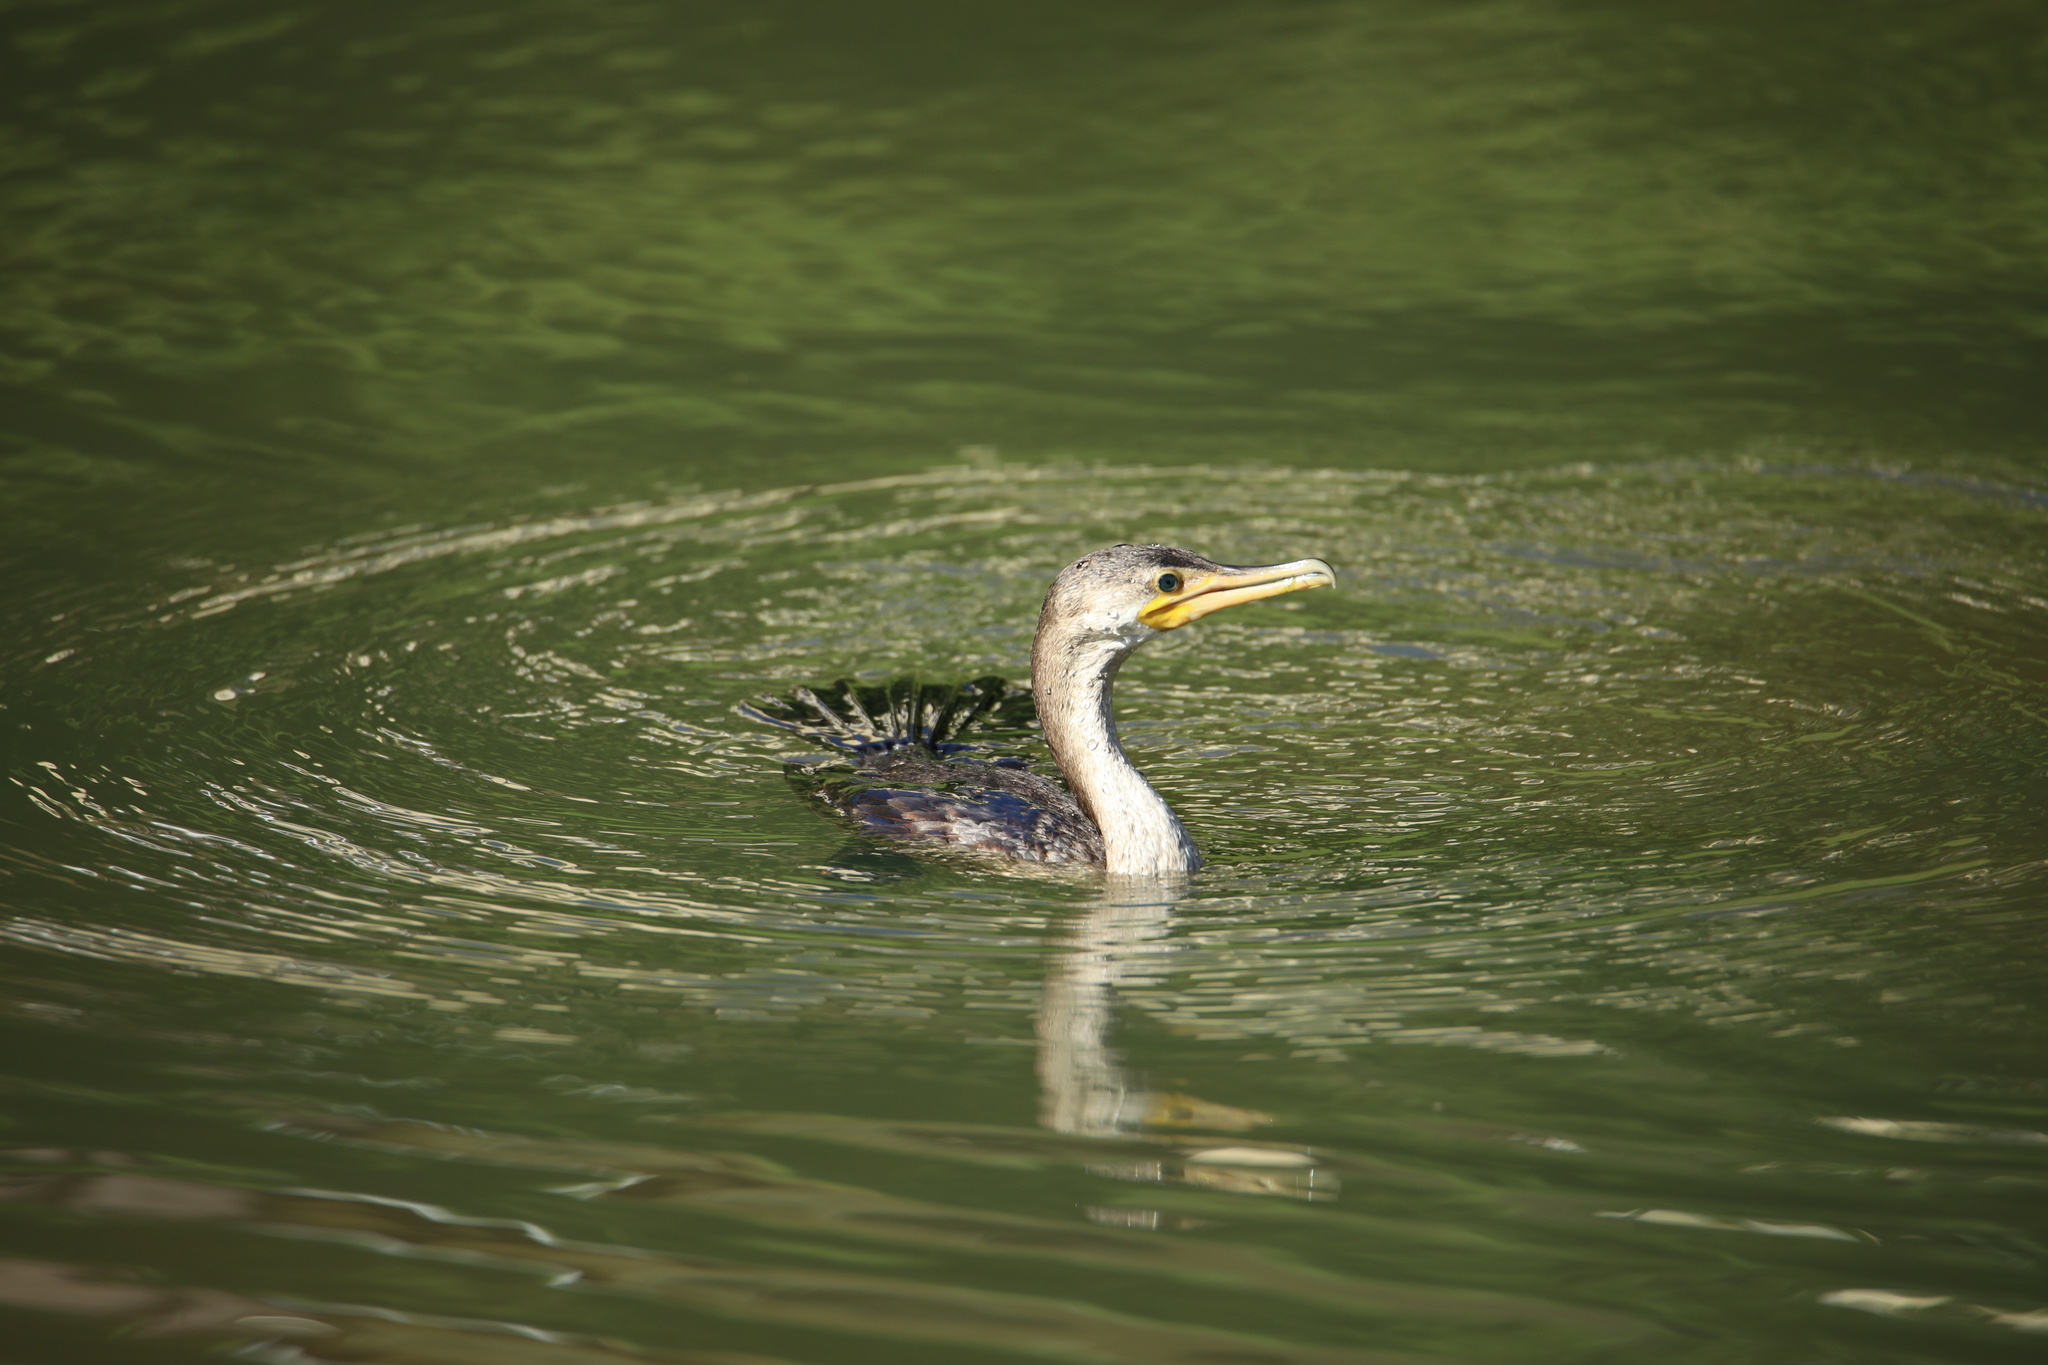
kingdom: Animalia
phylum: Chordata
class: Aves
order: Suliformes
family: Phalacrocoracidae
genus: Phalacrocorax
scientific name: Phalacrocorax brasilianus
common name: Neotropic cormorant
